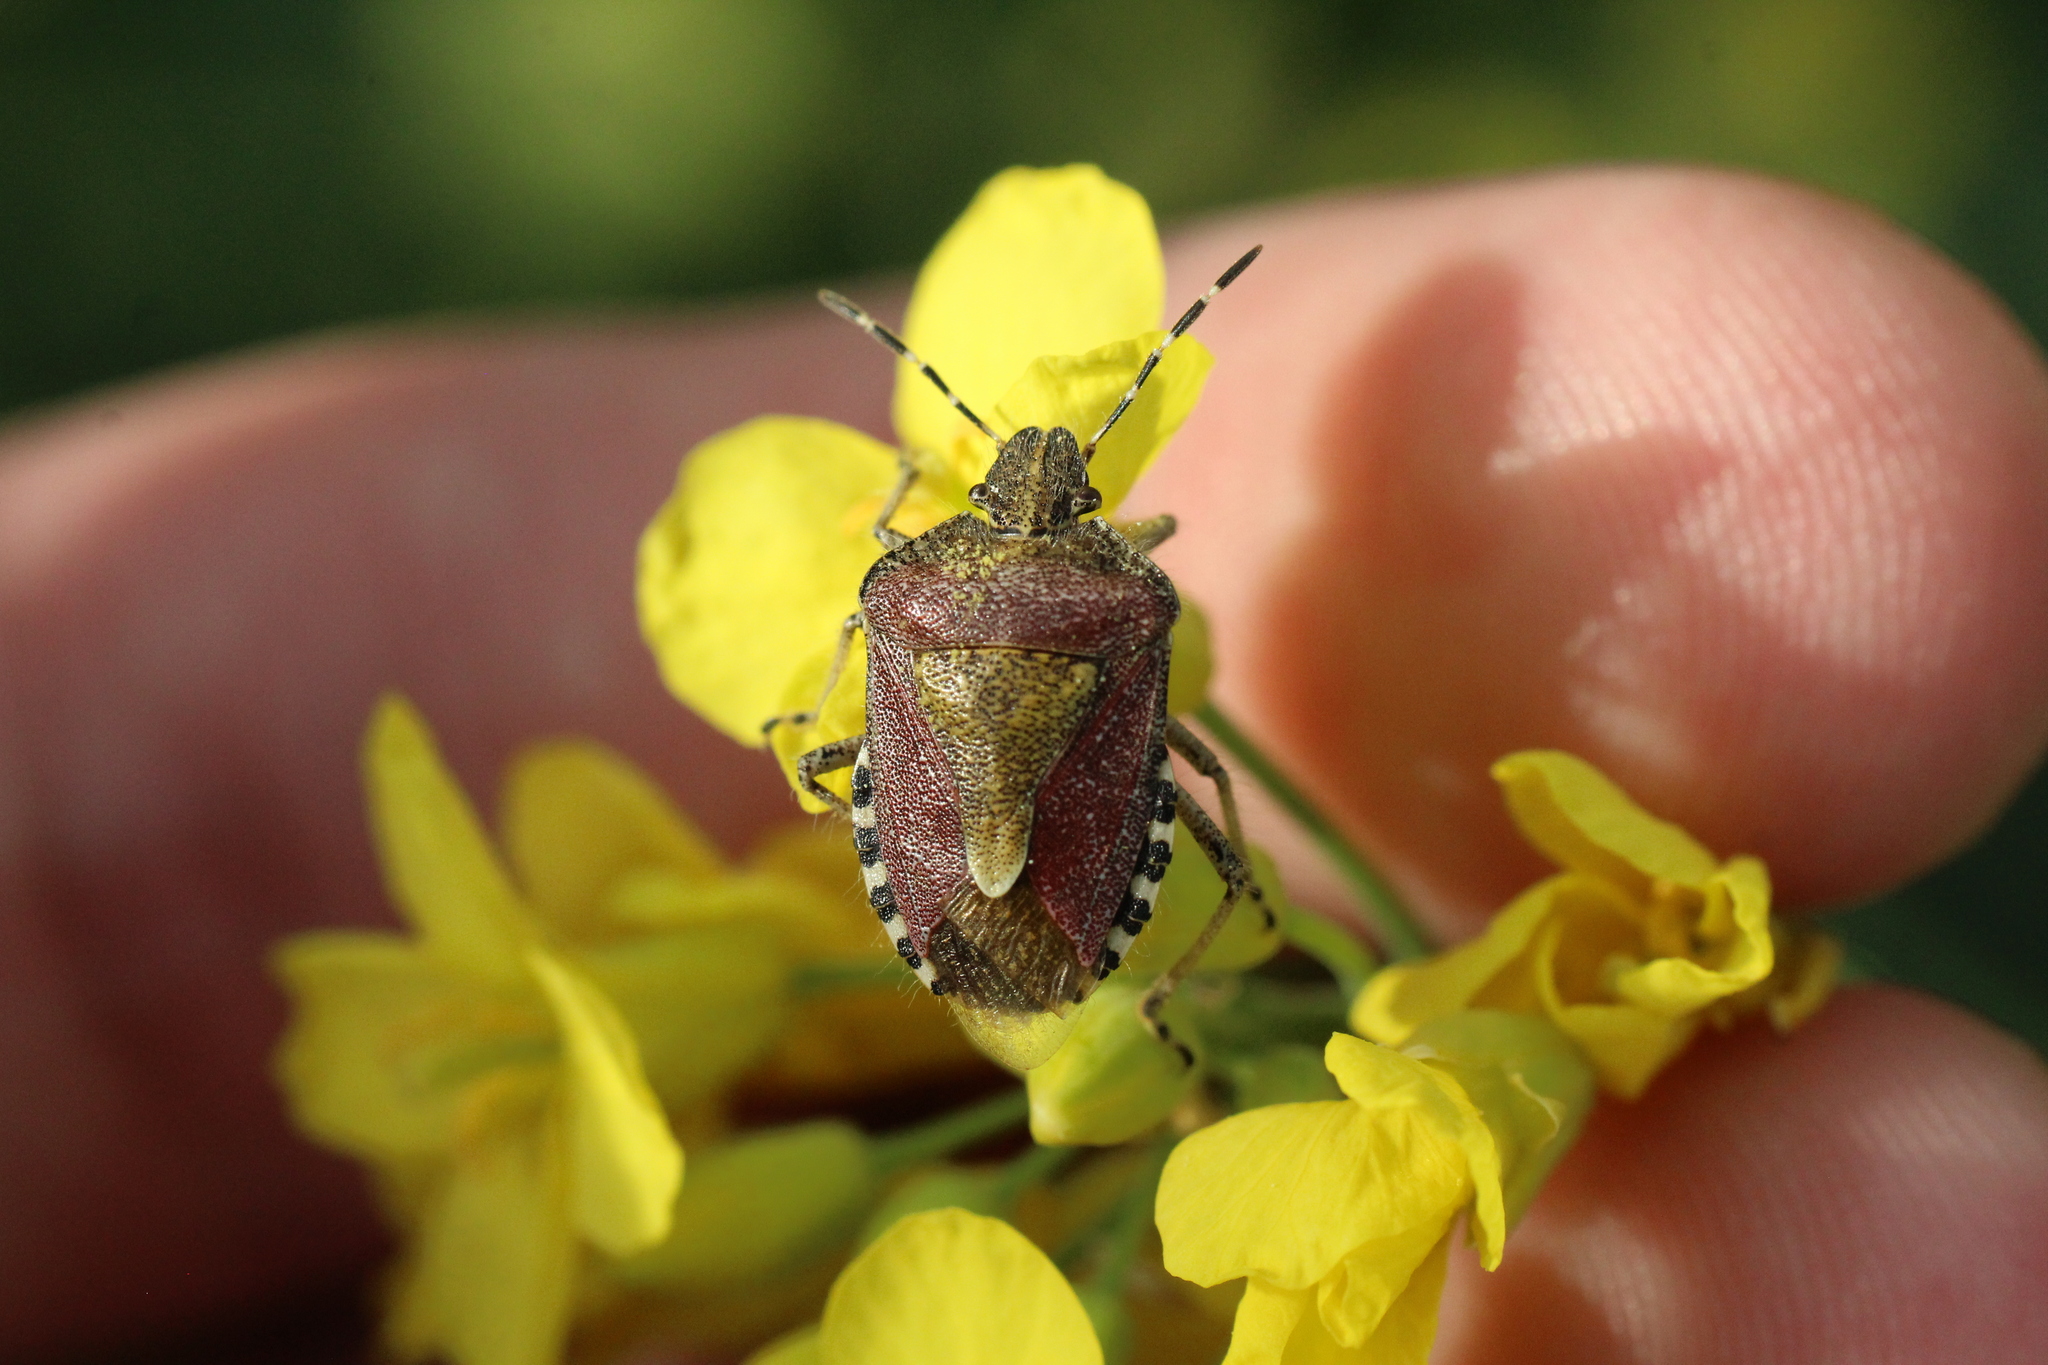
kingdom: Animalia
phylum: Arthropoda
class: Insecta
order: Hemiptera
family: Pentatomidae
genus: Dolycoris
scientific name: Dolycoris baccarum
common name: Sloe bug
